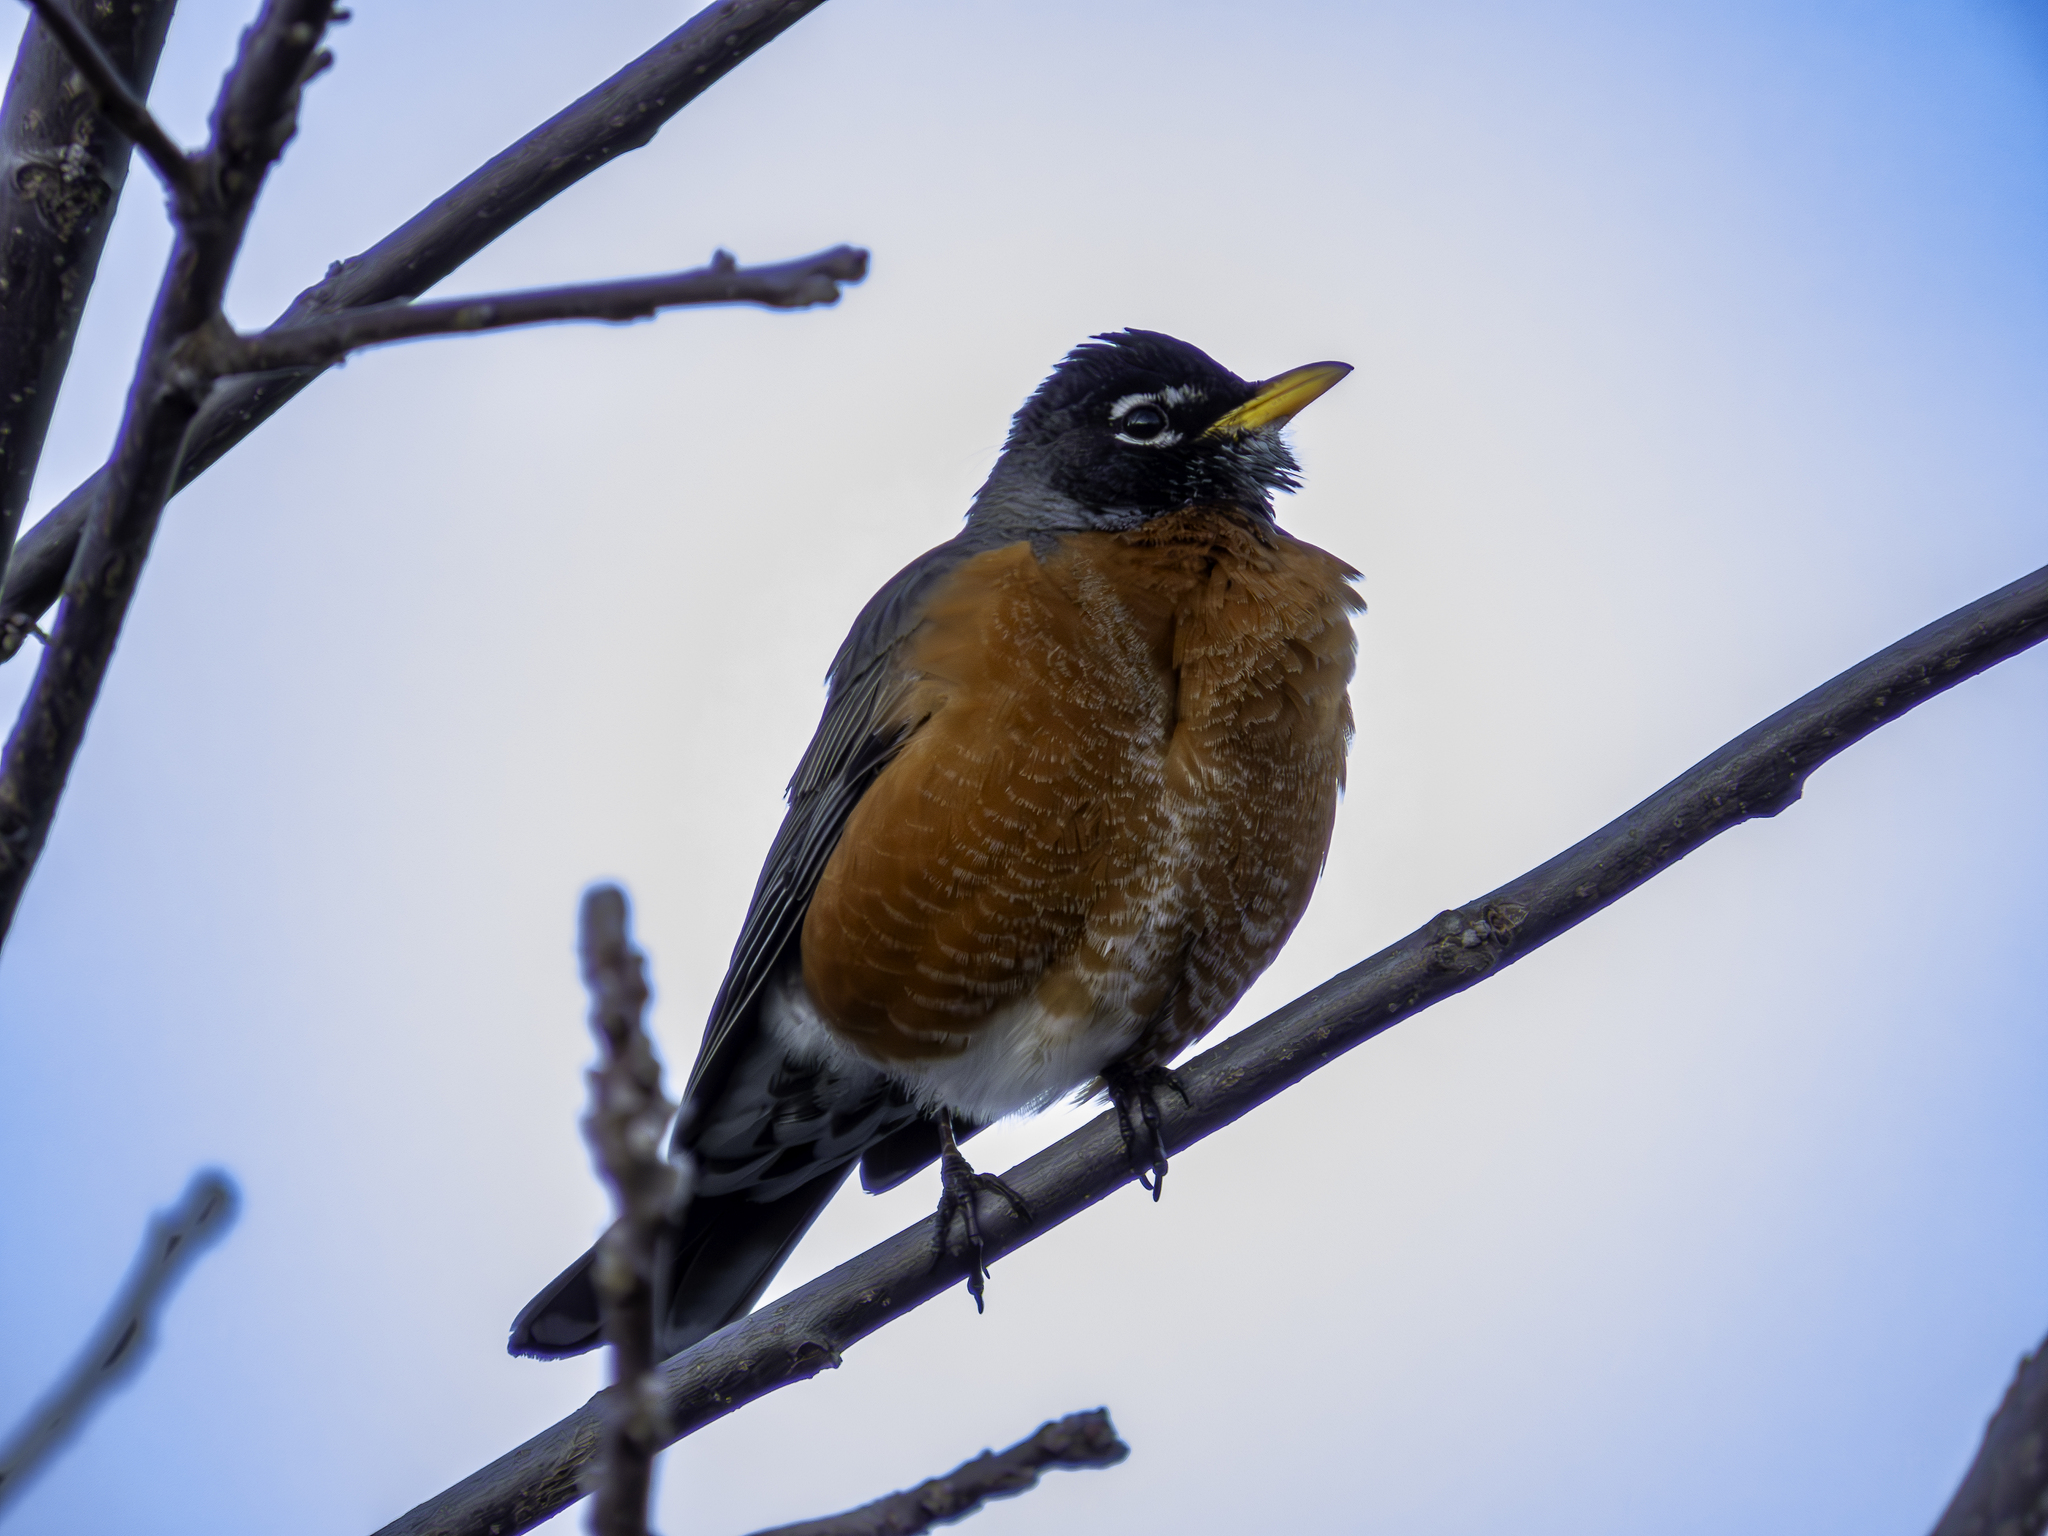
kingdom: Animalia
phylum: Chordata
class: Aves
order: Passeriformes
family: Turdidae
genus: Turdus
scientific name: Turdus migratorius
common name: American robin
